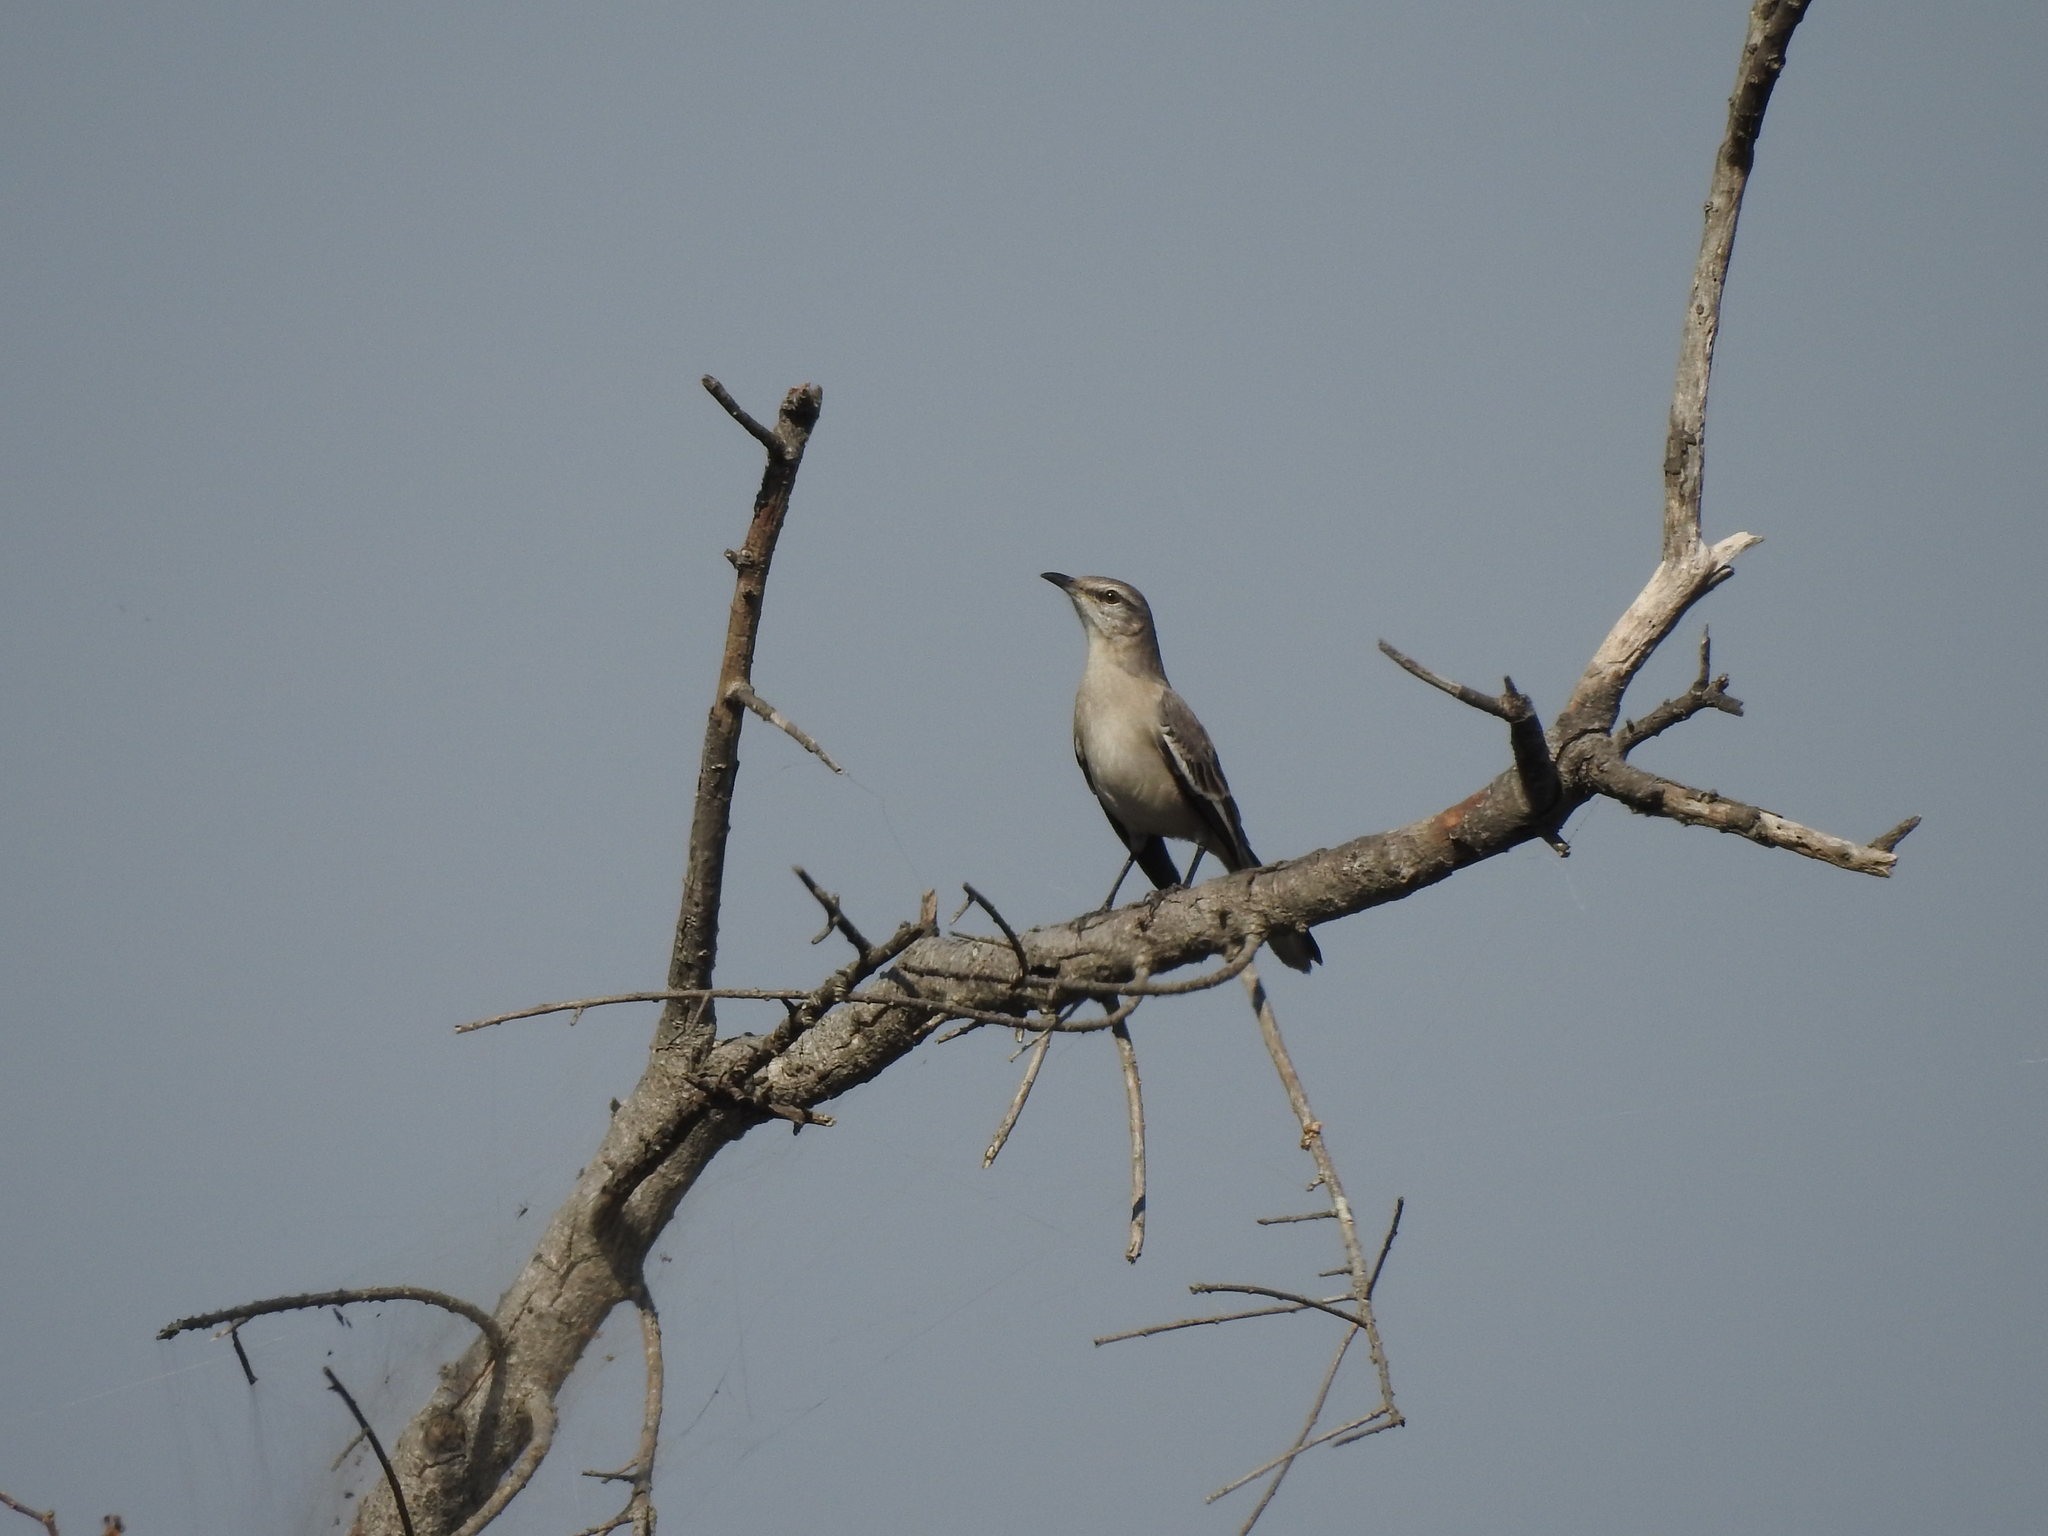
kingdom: Animalia
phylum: Chordata
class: Aves
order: Passeriformes
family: Mimidae
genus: Mimus
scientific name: Mimus triurus
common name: White-banded mockingbird
